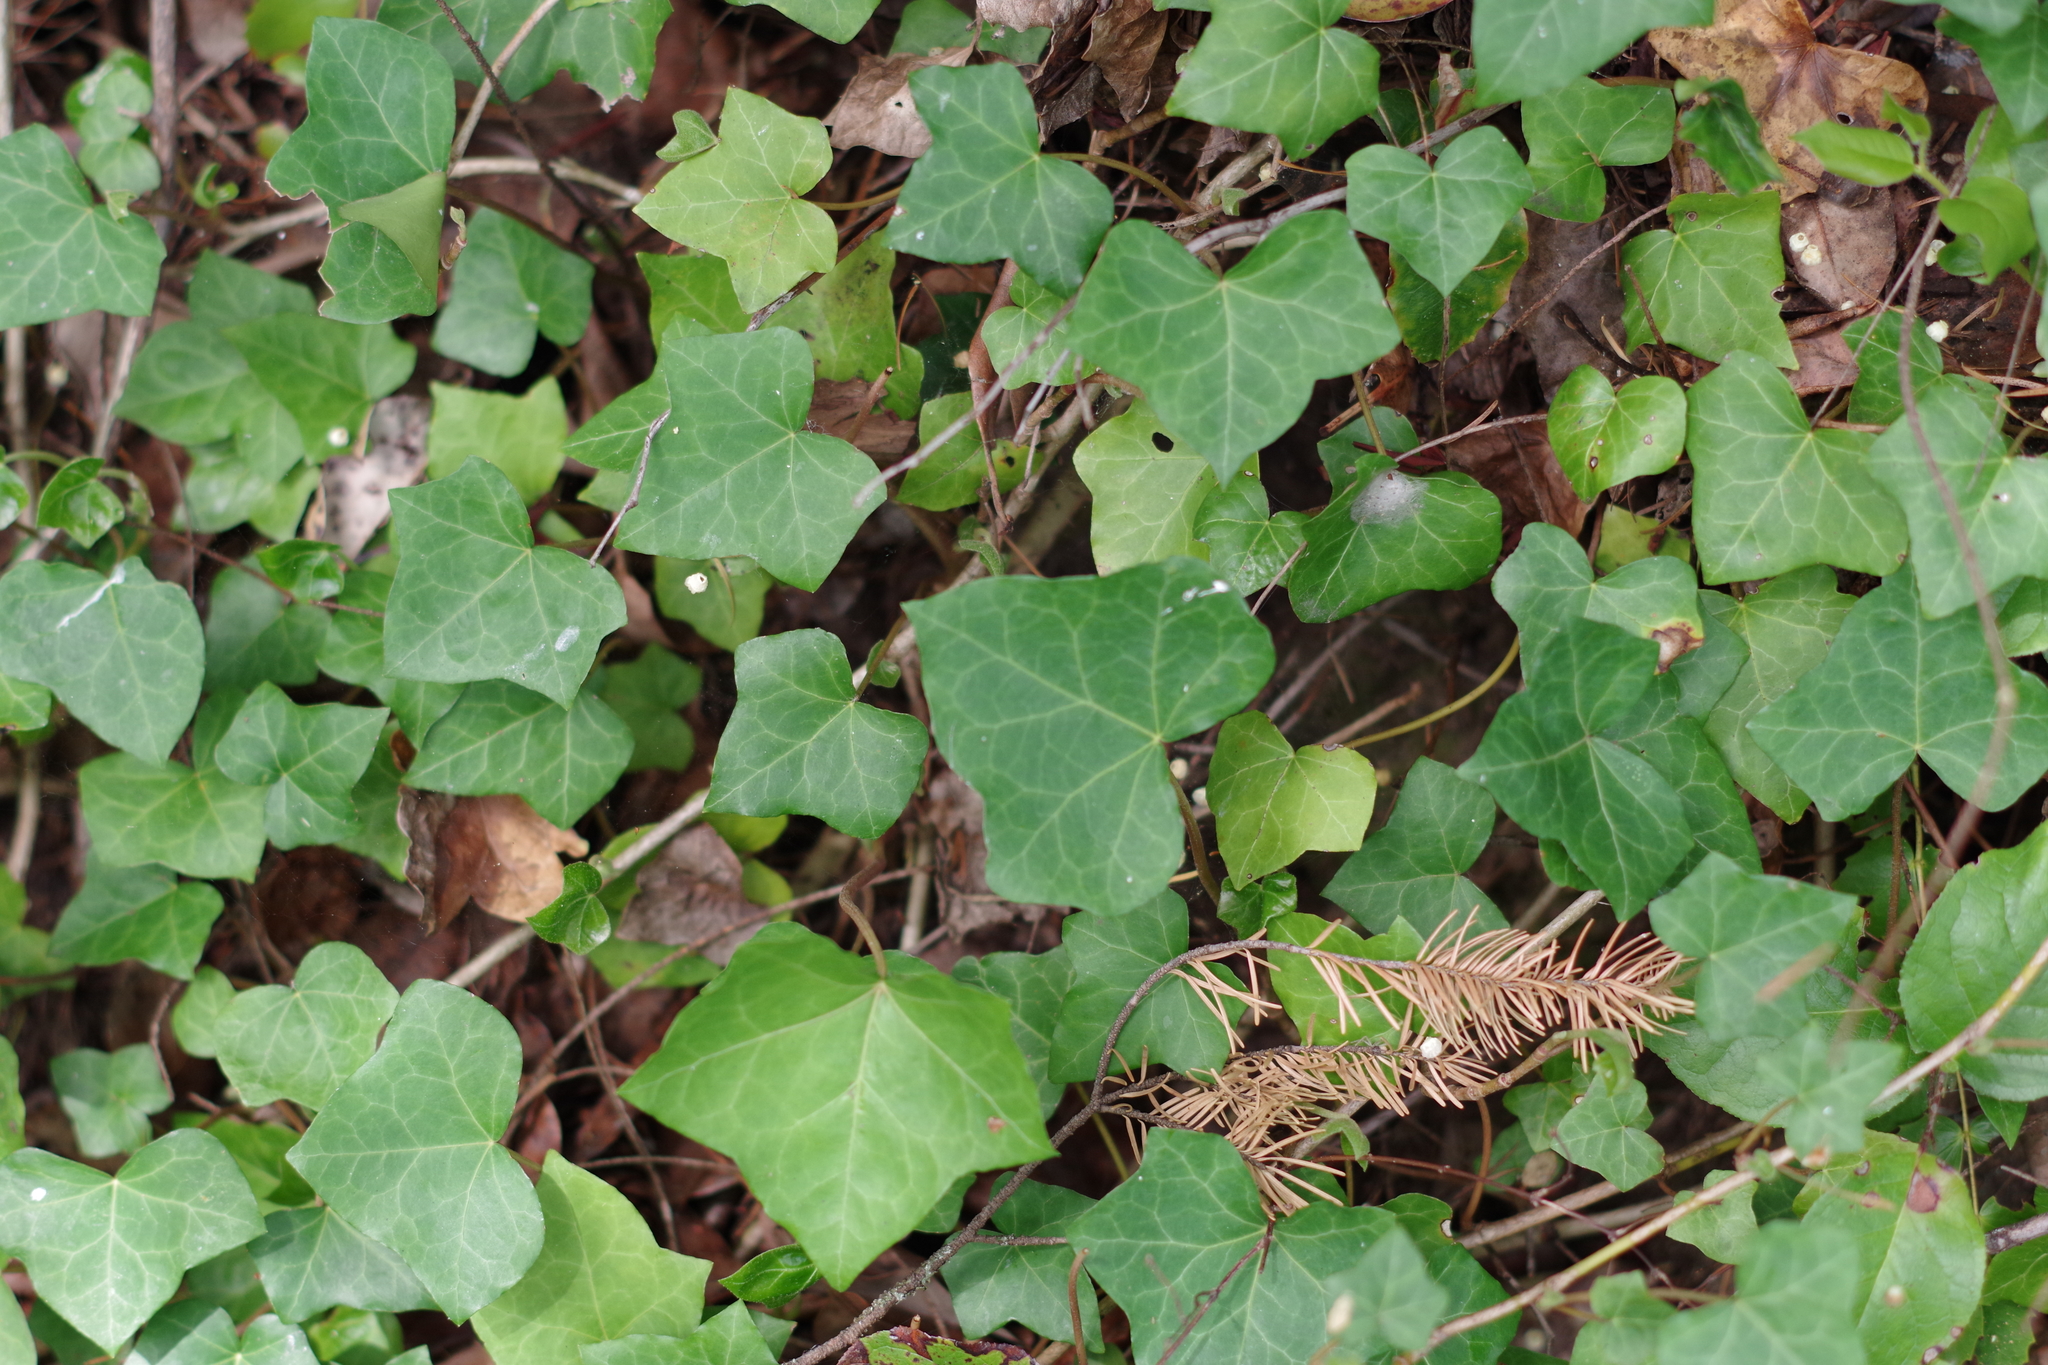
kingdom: Plantae
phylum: Tracheophyta
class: Magnoliopsida
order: Apiales
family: Araliaceae
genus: Hedera
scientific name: Hedera helix
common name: Ivy
